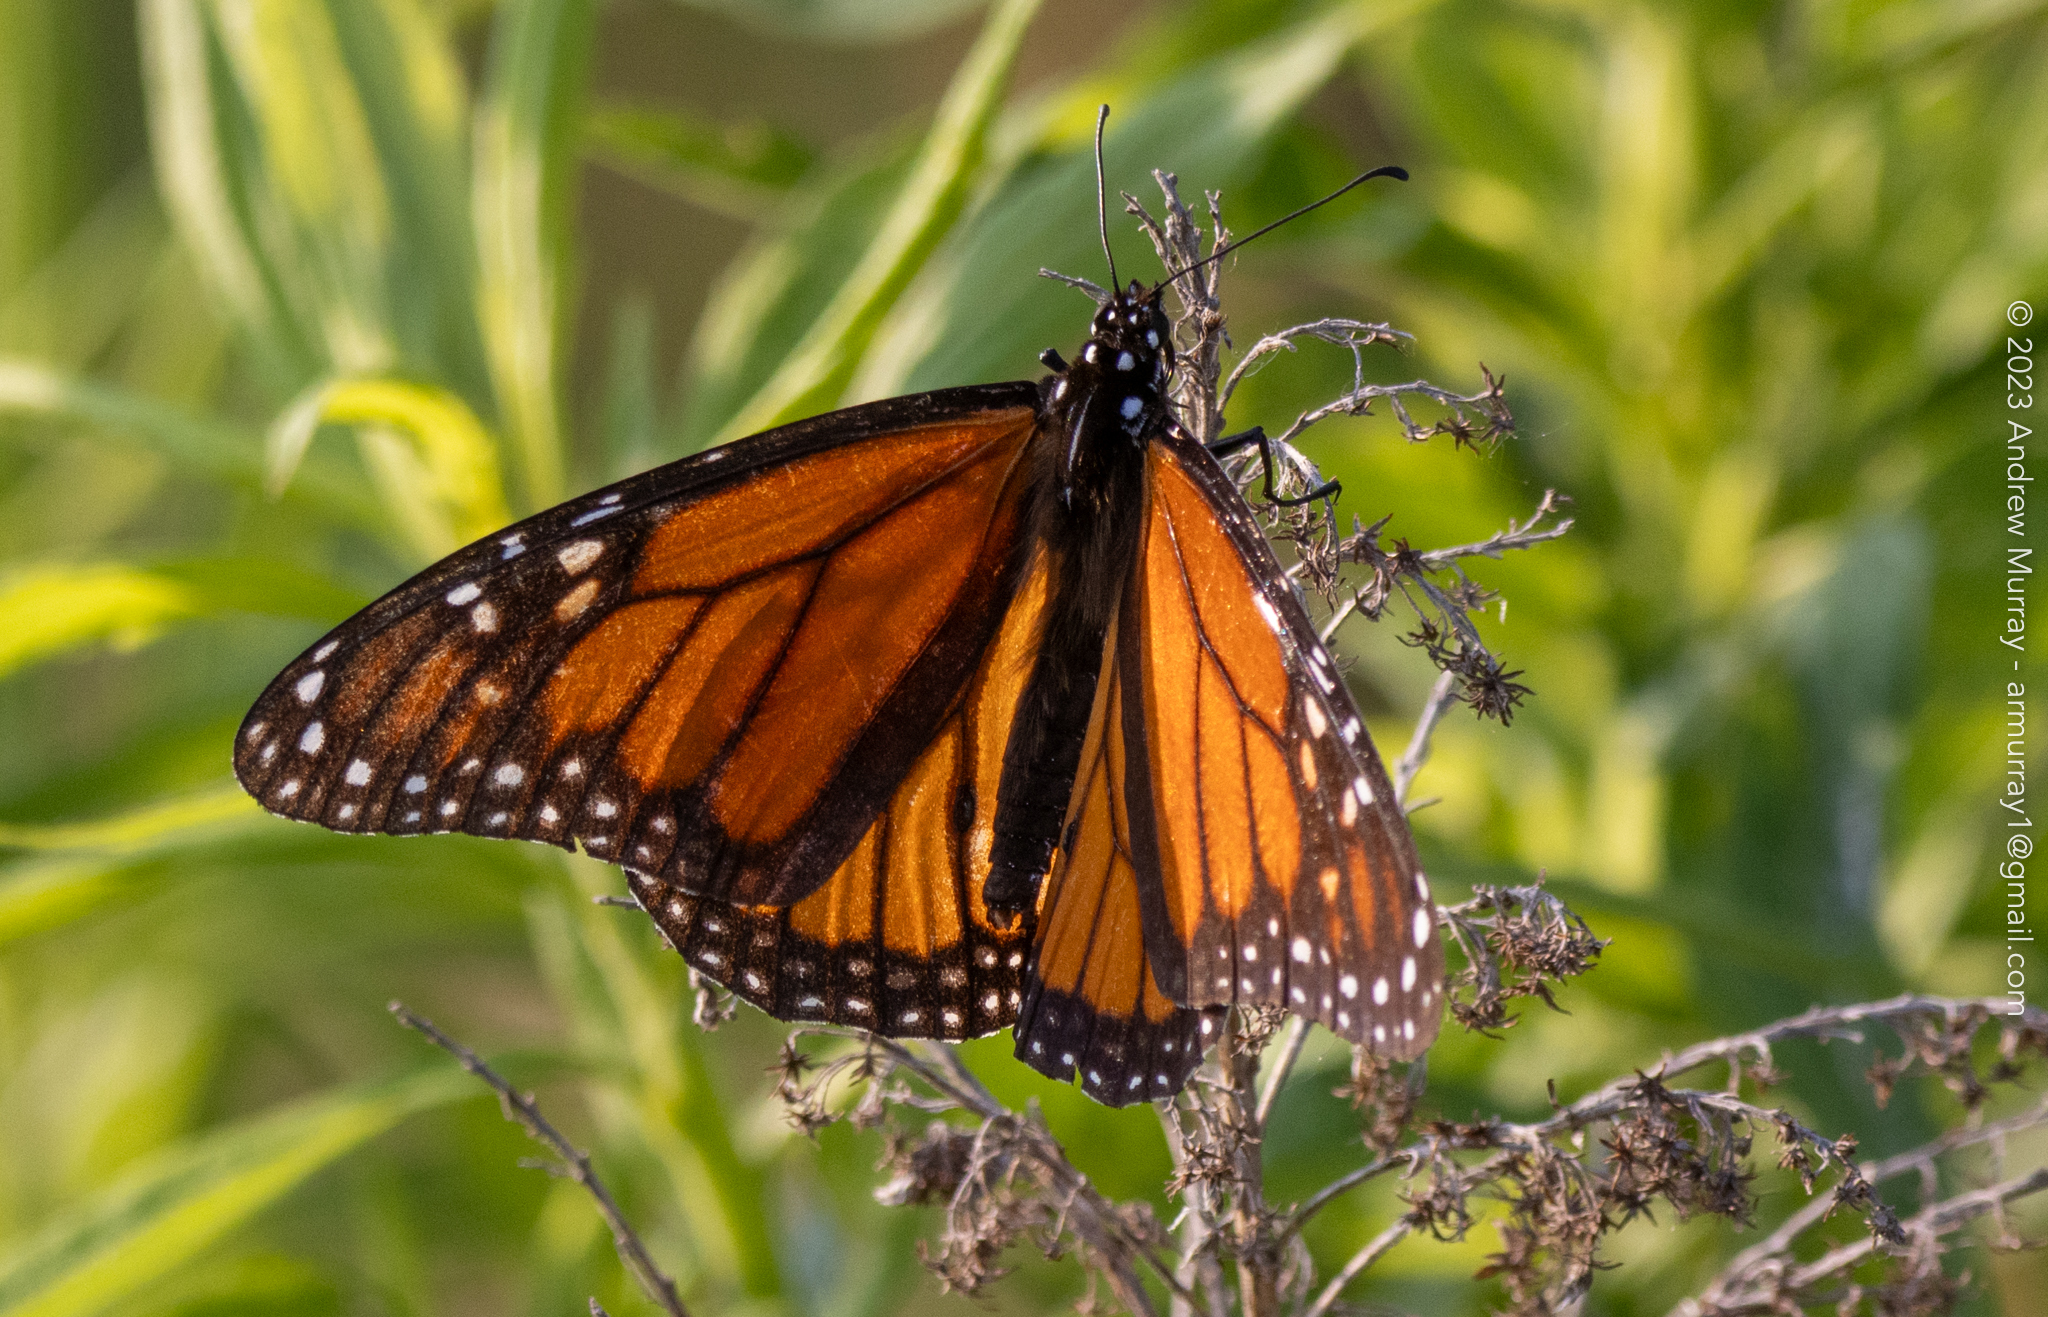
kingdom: Animalia
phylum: Arthropoda
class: Insecta
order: Lepidoptera
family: Nymphalidae
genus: Danaus
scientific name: Danaus plexippus
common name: Monarch
